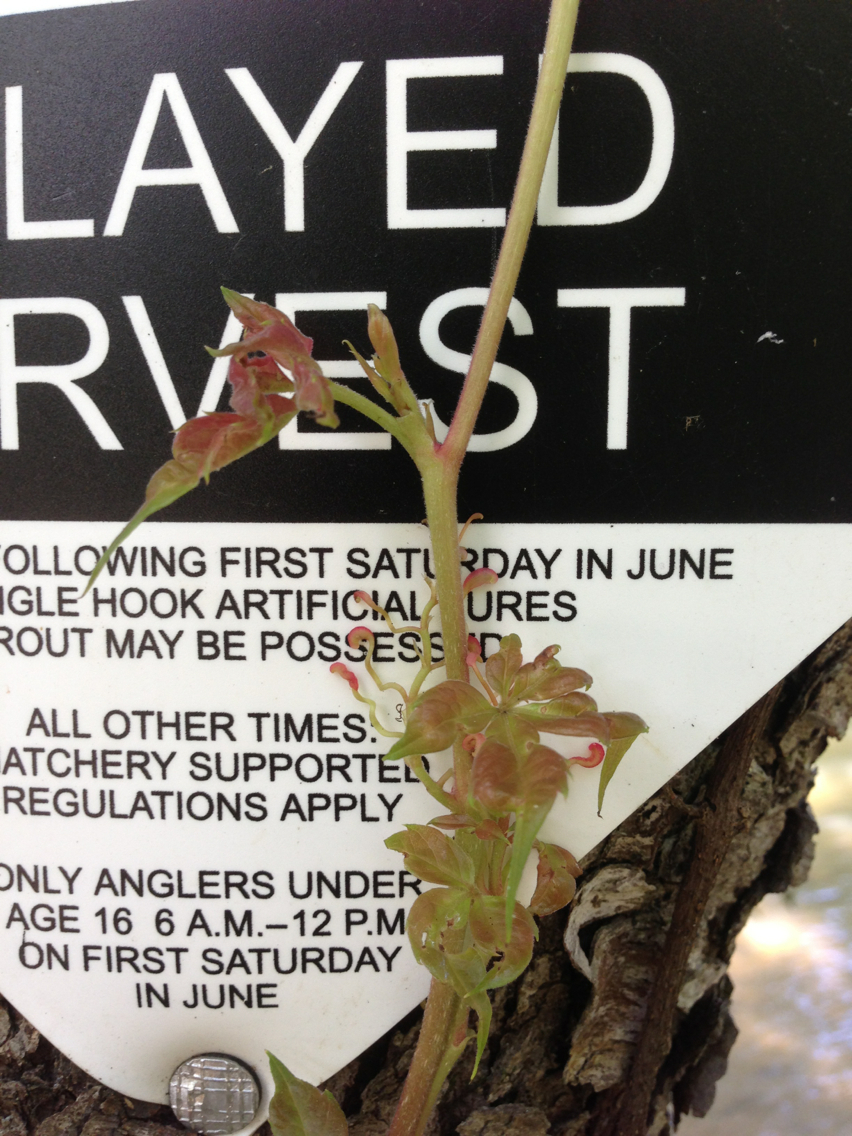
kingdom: Plantae
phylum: Tracheophyta
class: Magnoliopsida
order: Vitales
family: Vitaceae
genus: Parthenocissus
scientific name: Parthenocissus quinquefolia
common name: Virginia-creeper
